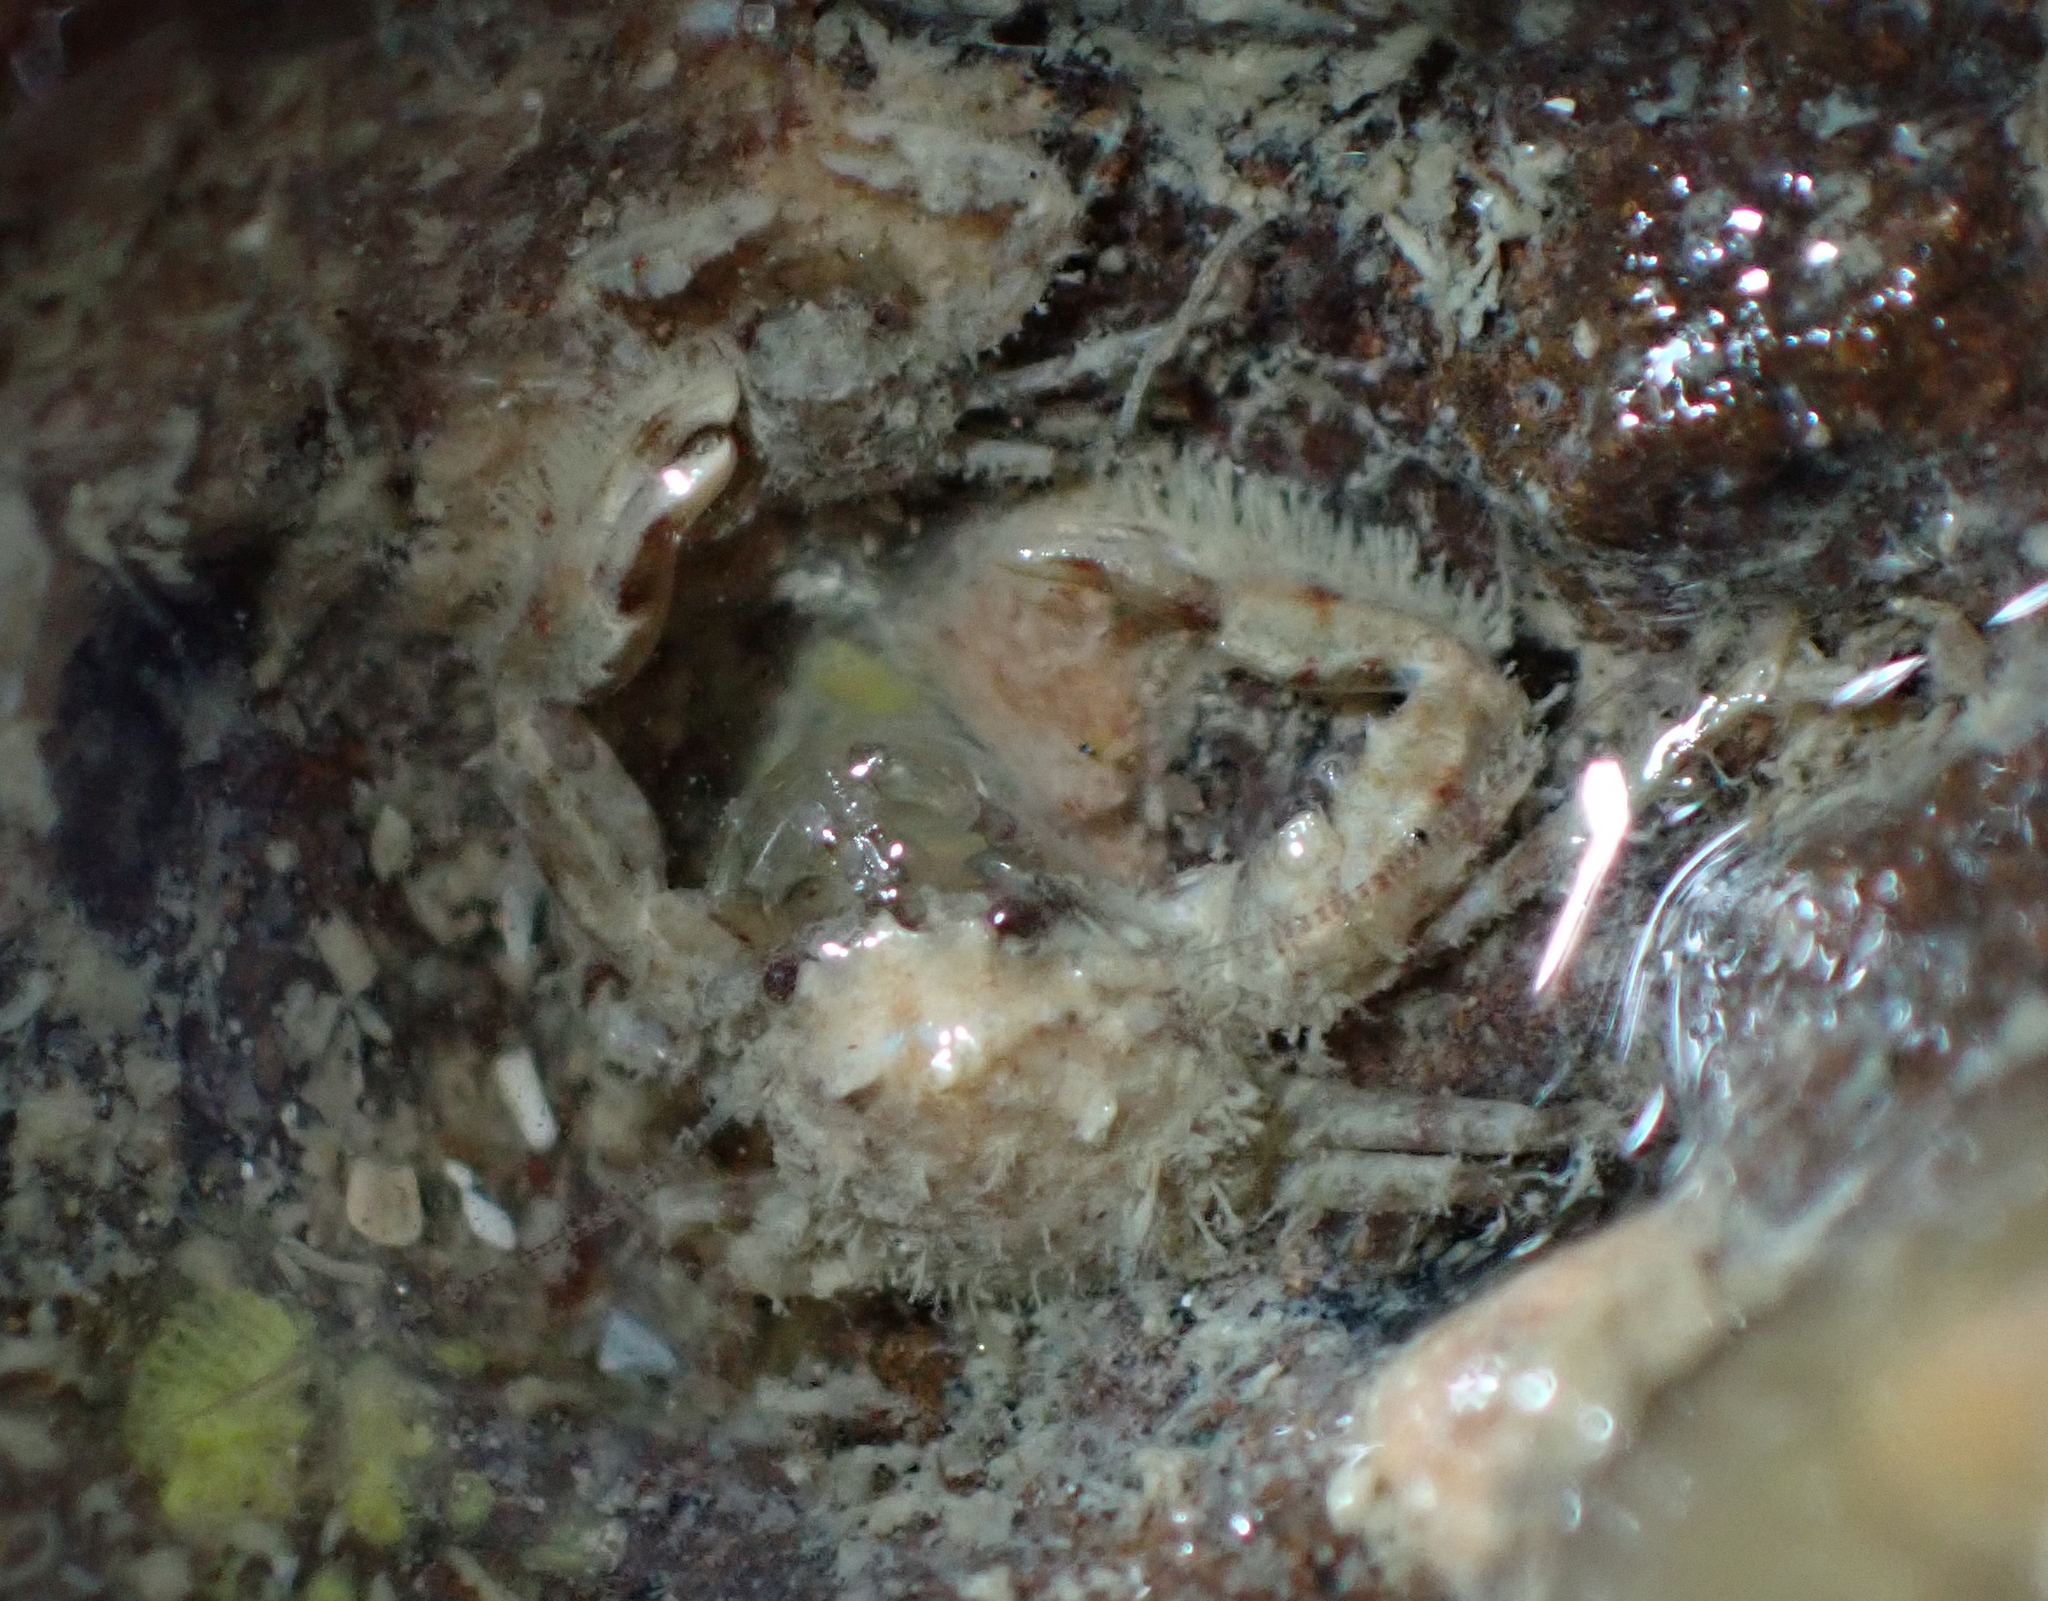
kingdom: Animalia
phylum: Arthropoda
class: Malacostraca
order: Decapoda
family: Porcellanidae
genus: Petrocheles
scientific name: Petrocheles spinosus
